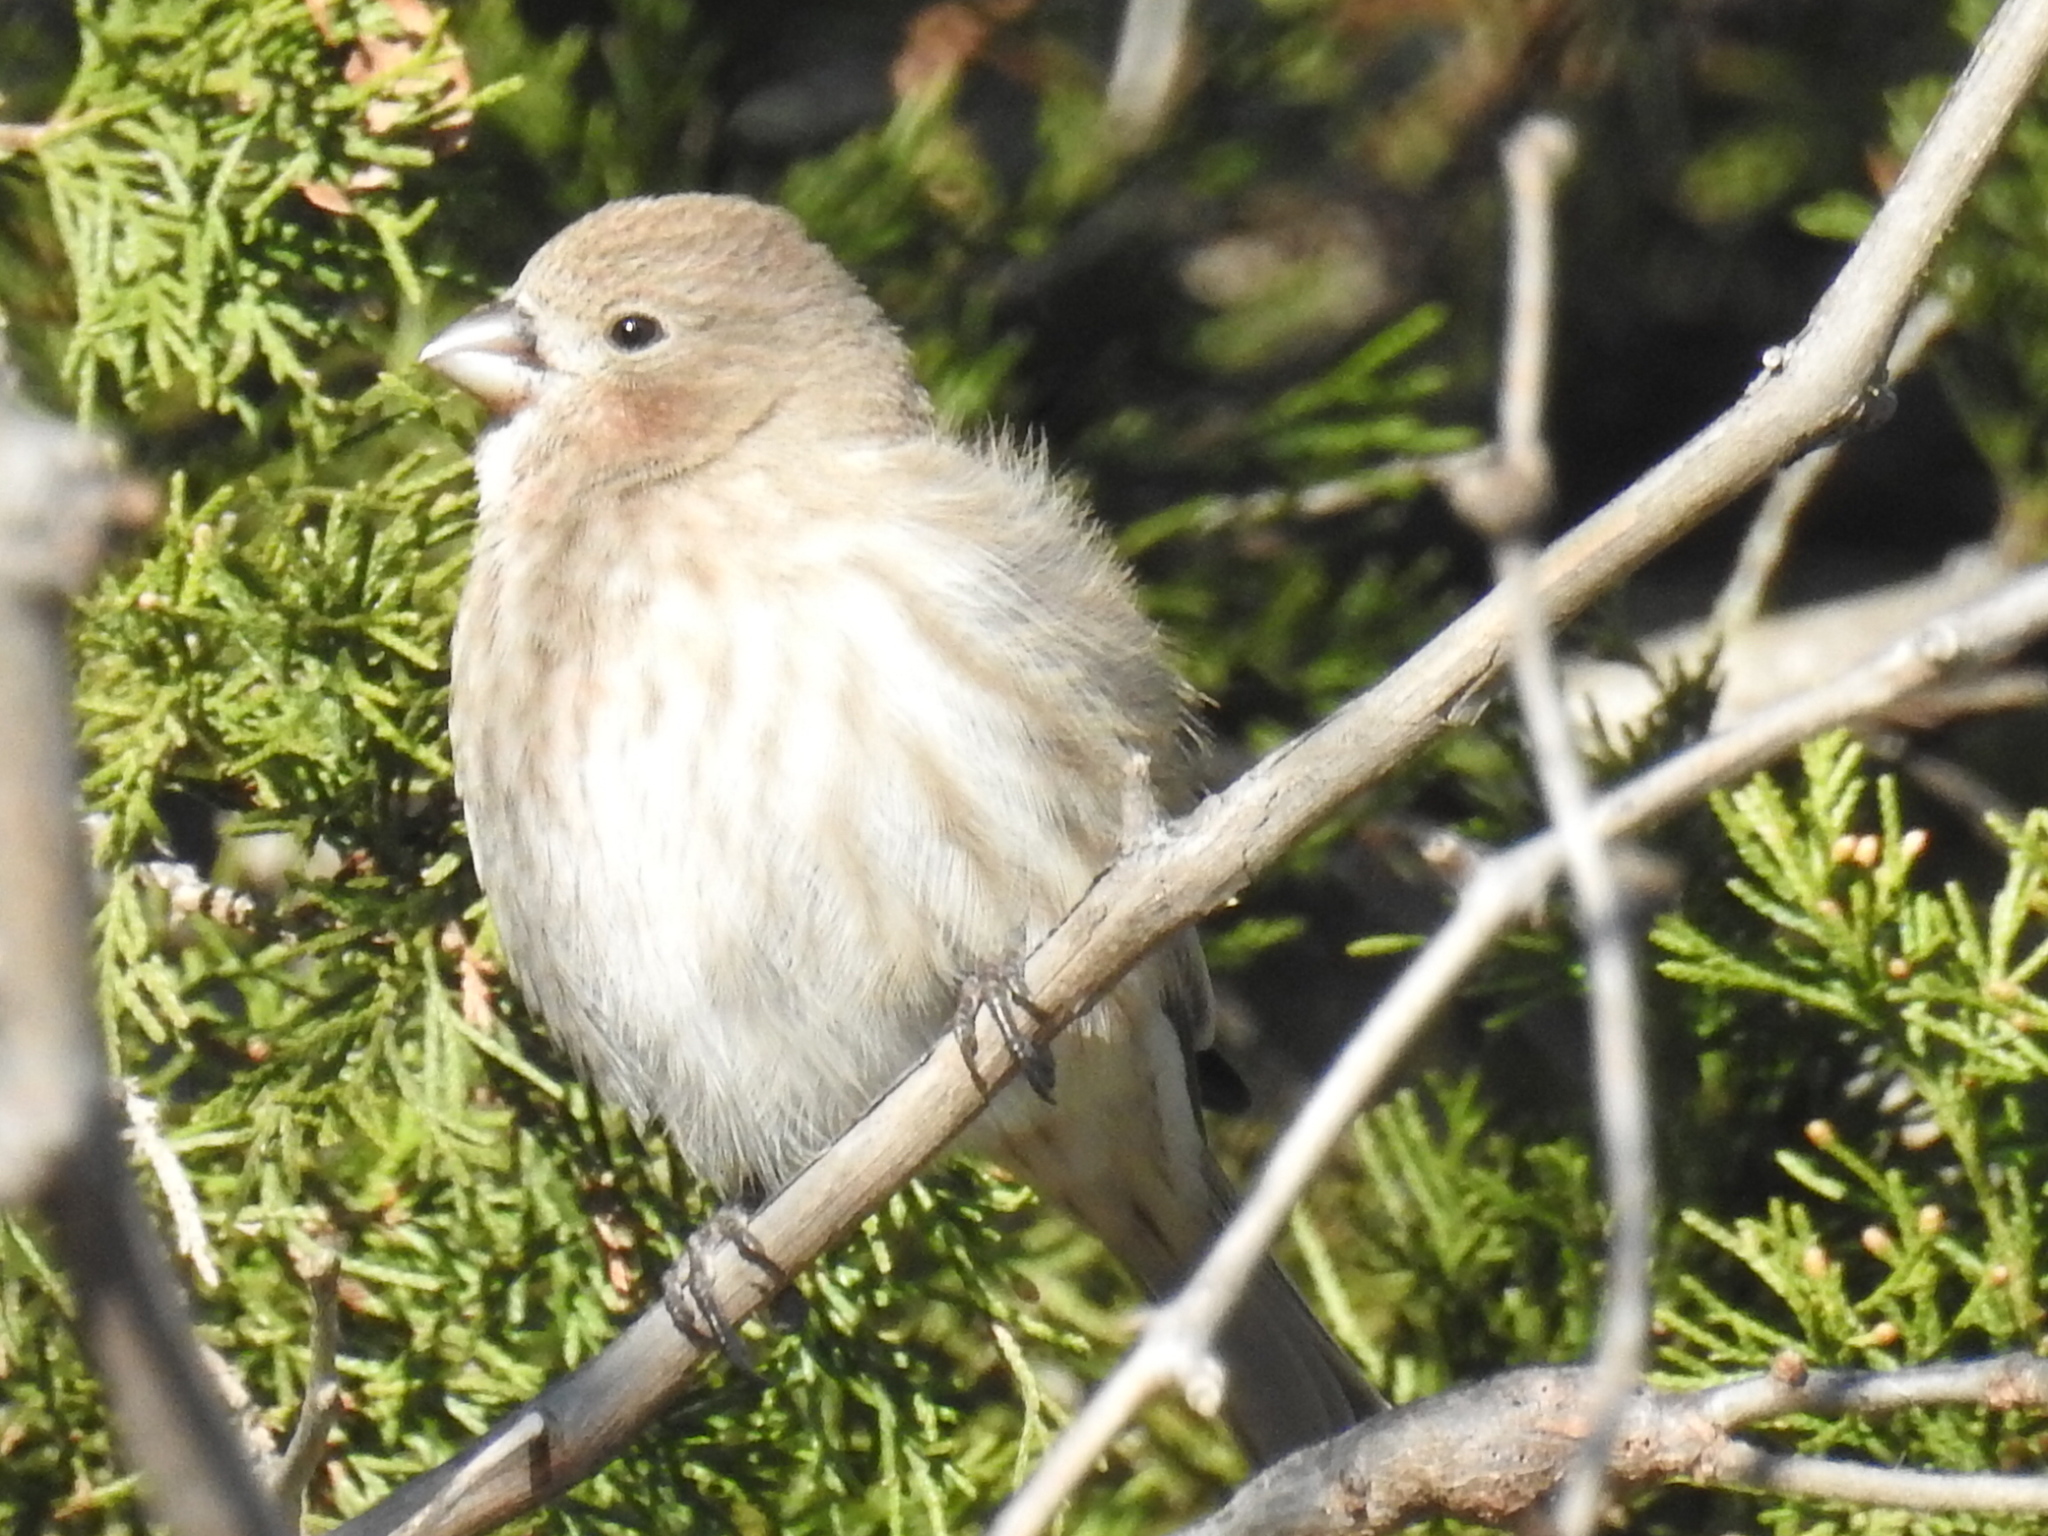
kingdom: Animalia
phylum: Chordata
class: Aves
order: Passeriformes
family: Fringillidae
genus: Haemorhous
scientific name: Haemorhous mexicanus
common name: House finch
